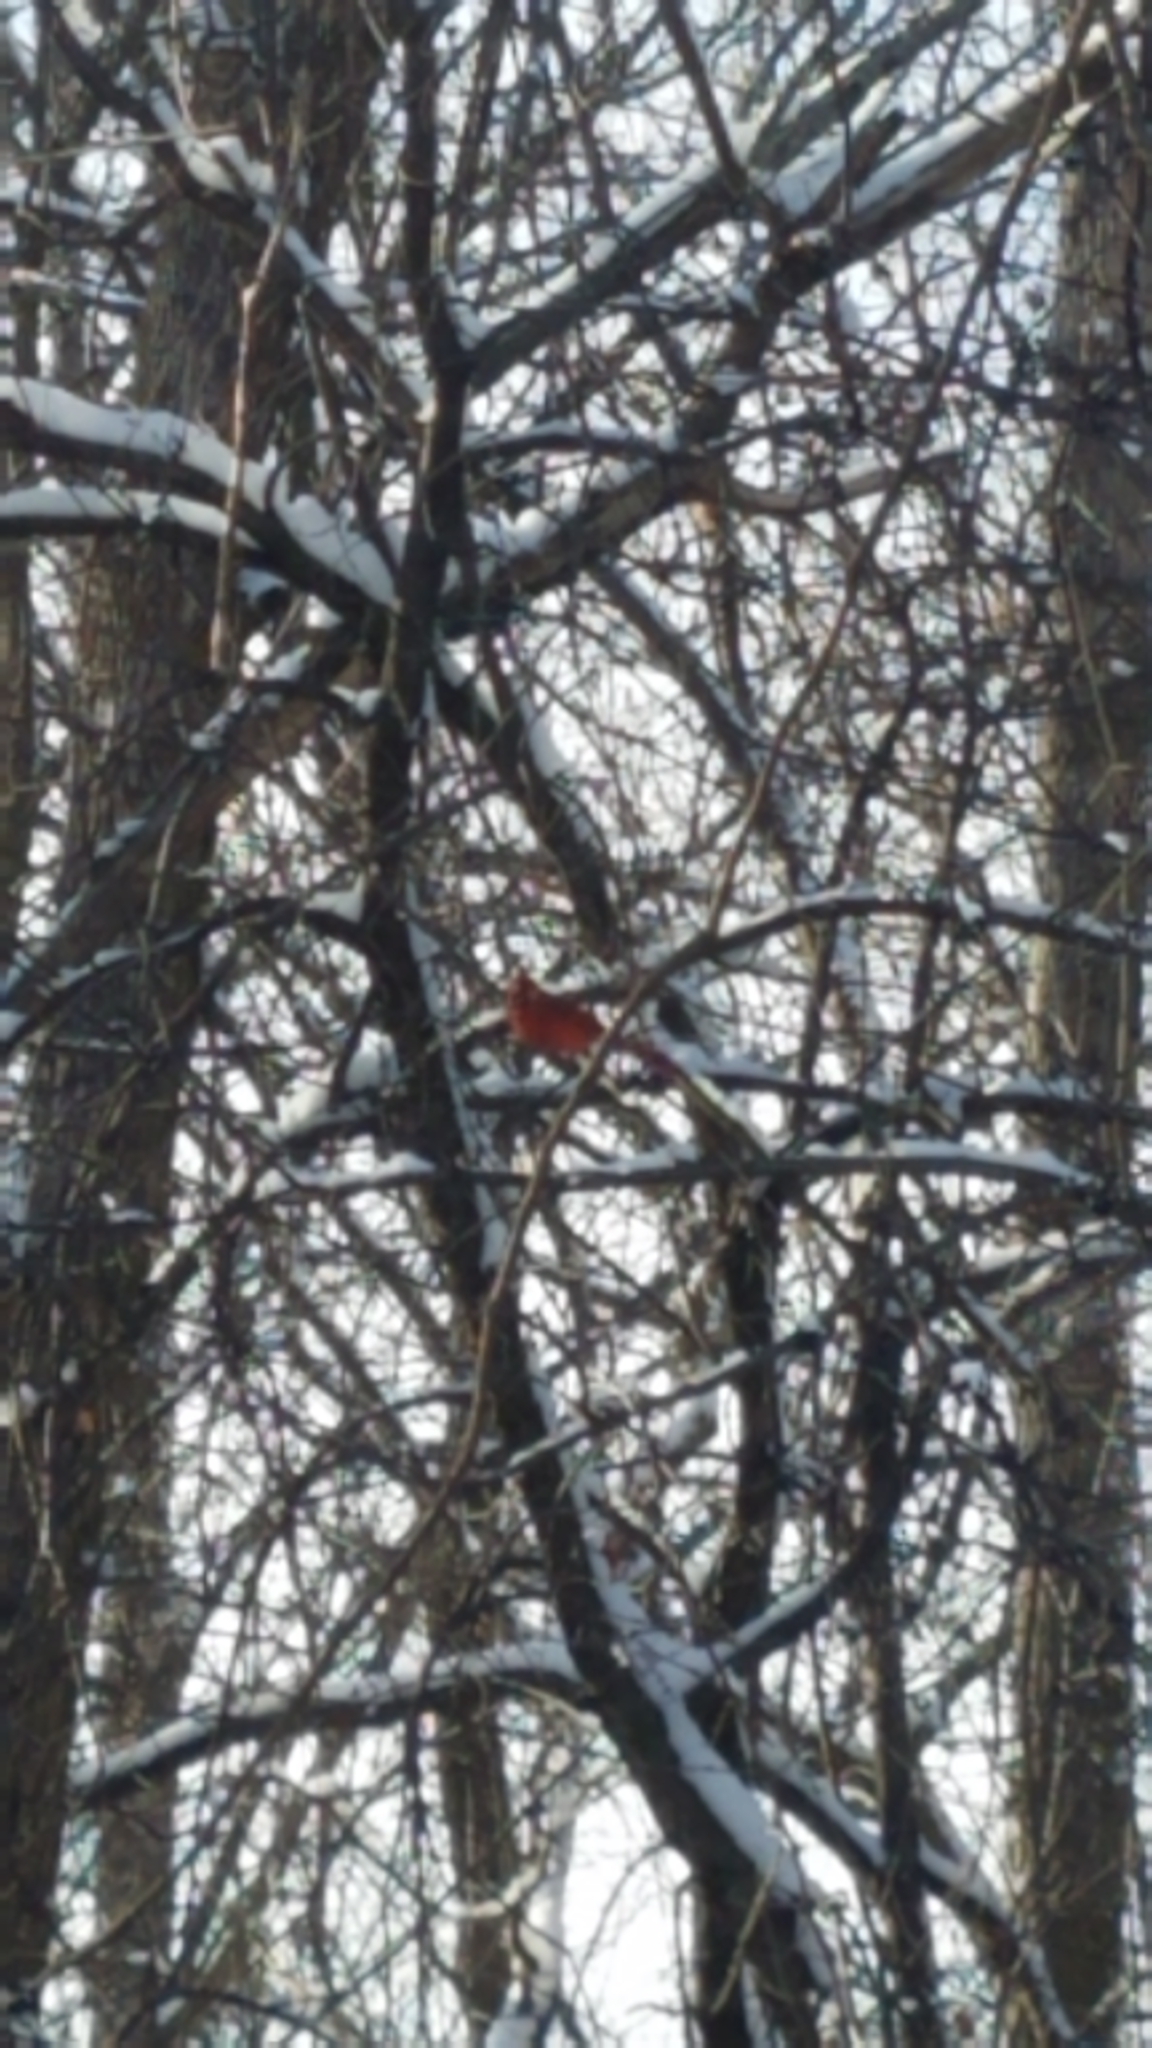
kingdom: Animalia
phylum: Chordata
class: Aves
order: Passeriformes
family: Cardinalidae
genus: Cardinalis
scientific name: Cardinalis cardinalis
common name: Northern cardinal
